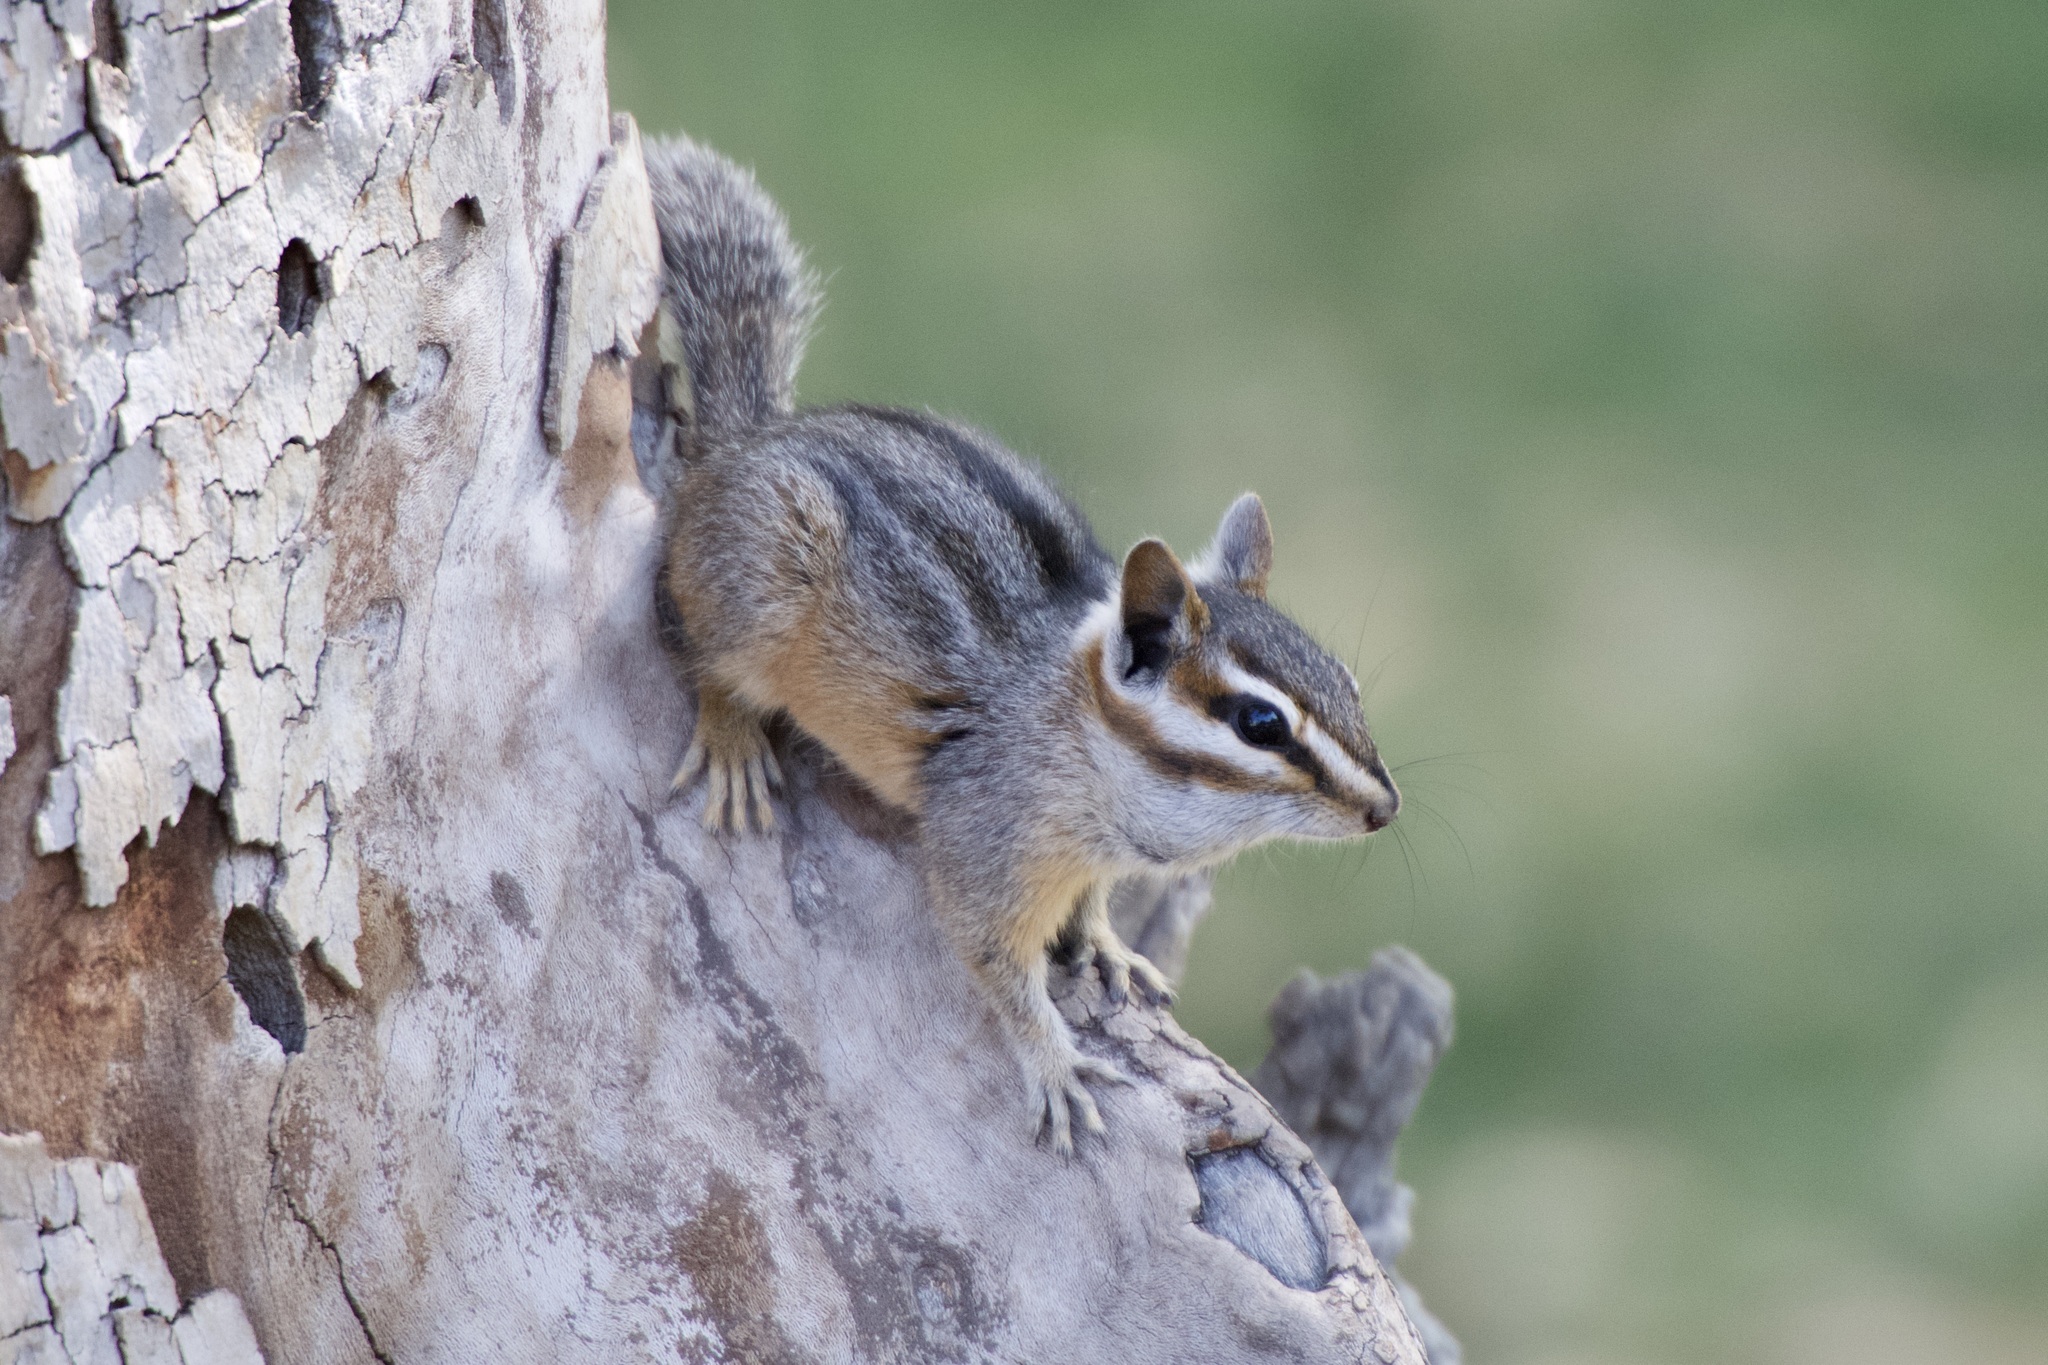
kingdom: Animalia
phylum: Chordata
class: Mammalia
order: Rodentia
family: Sciuridae
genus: Tamias
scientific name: Tamias dorsalis
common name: Cliff chipmunk
